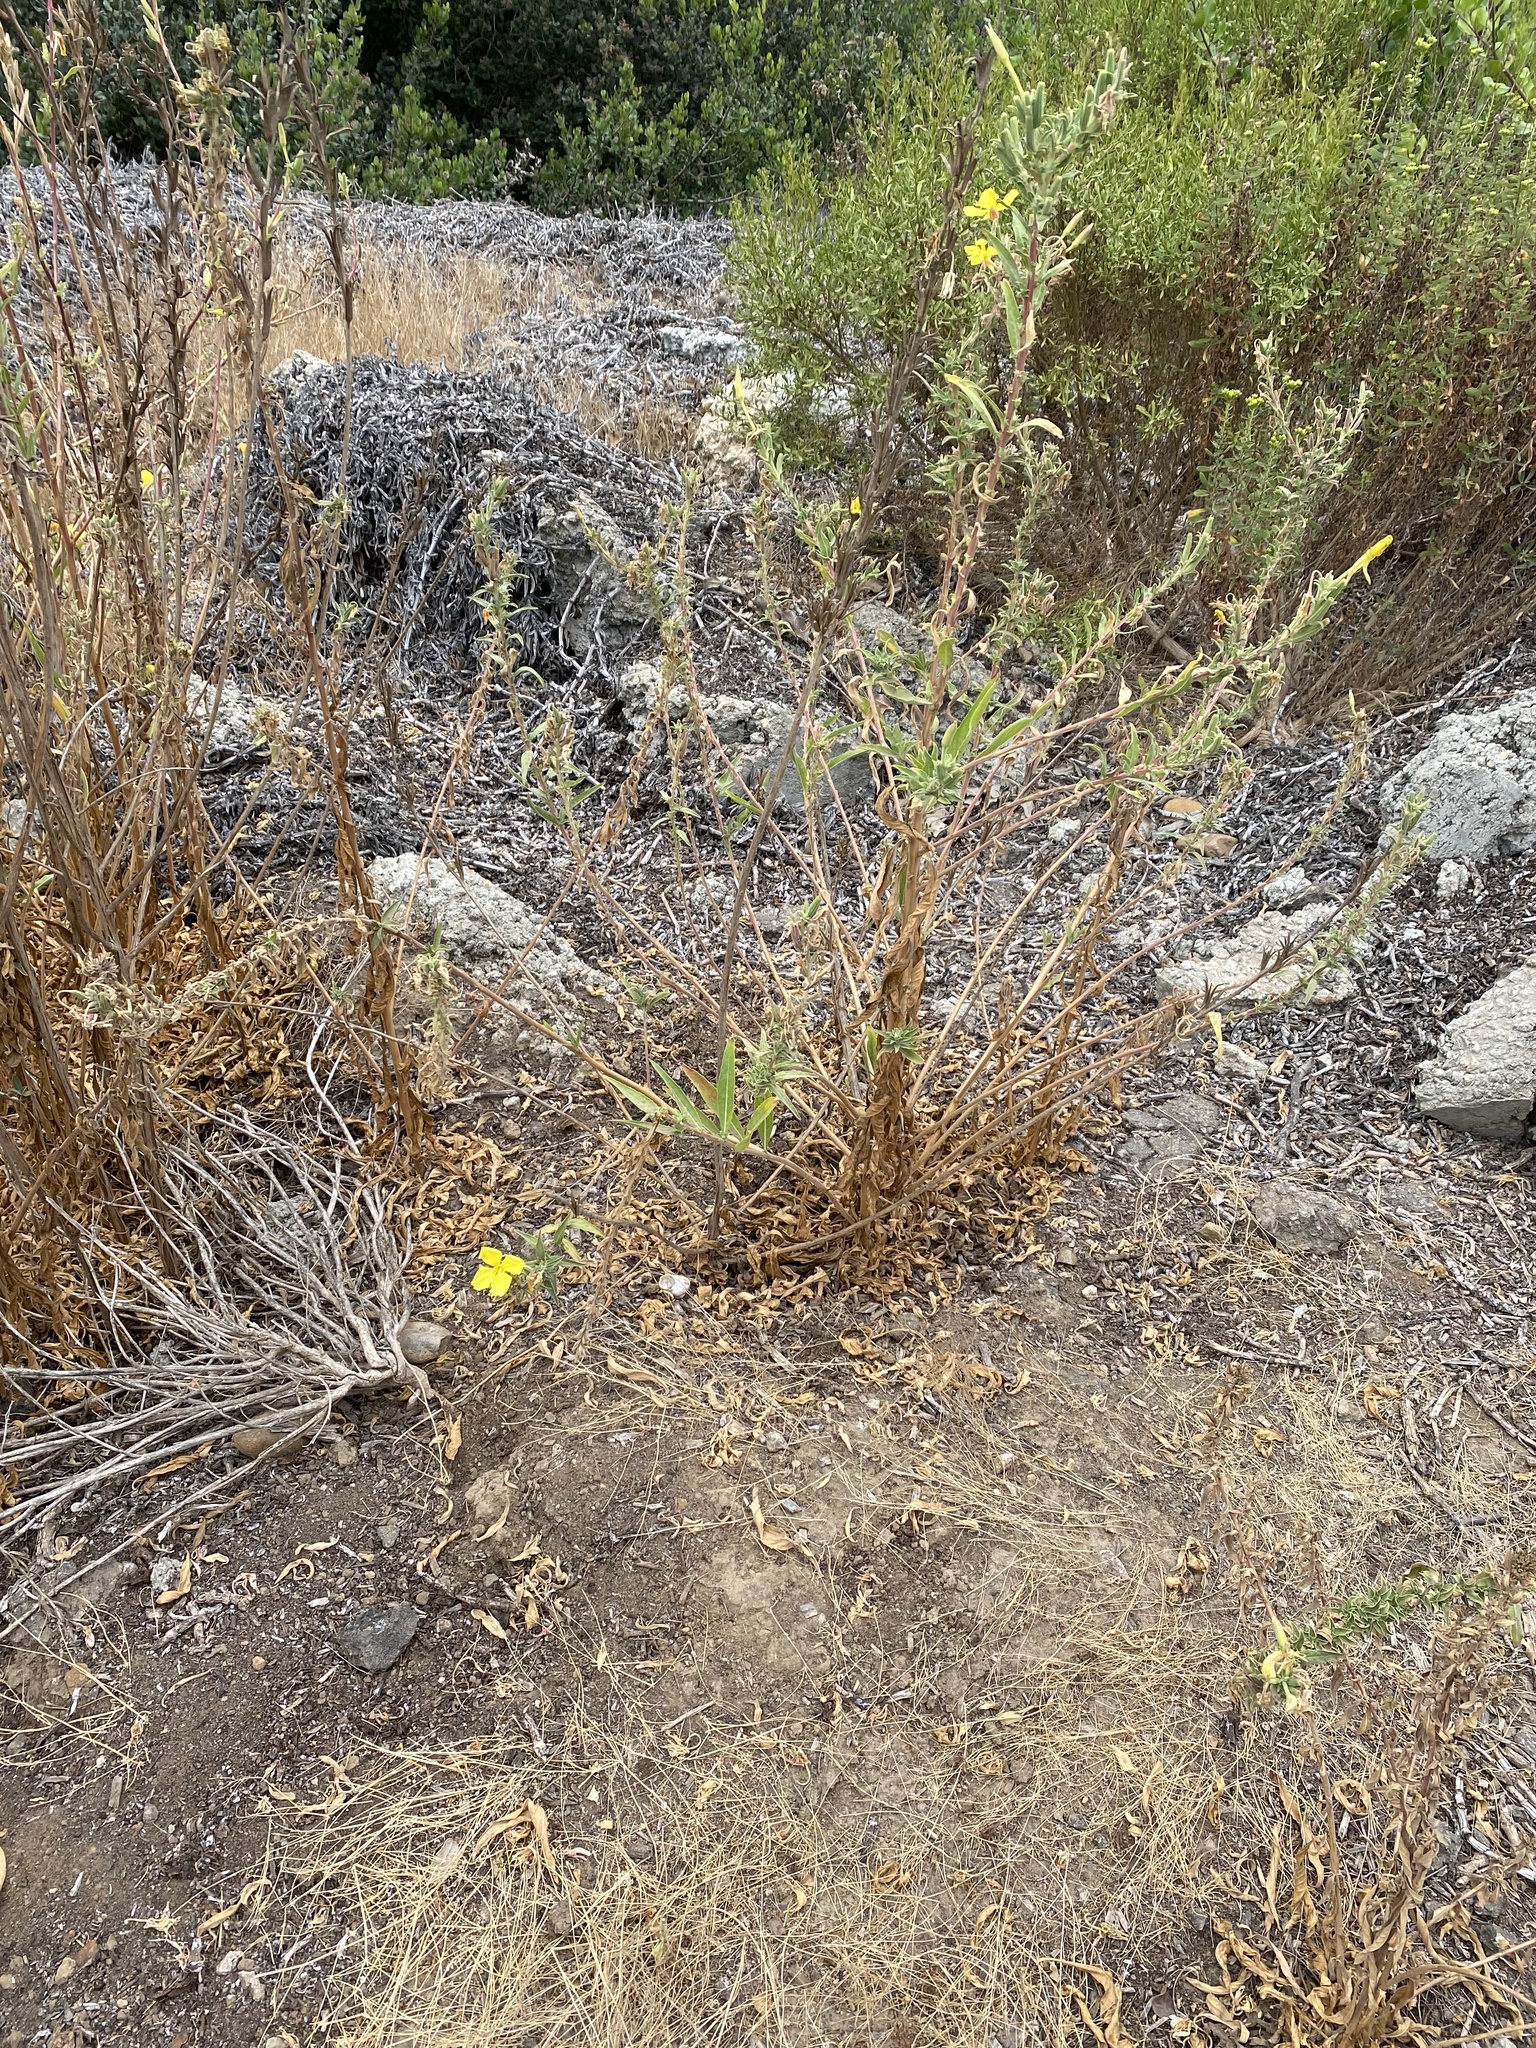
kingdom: Plantae
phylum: Tracheophyta
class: Magnoliopsida
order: Myrtales
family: Onagraceae
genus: Oenothera
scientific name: Oenothera elata
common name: Hooker's evening-primrose
